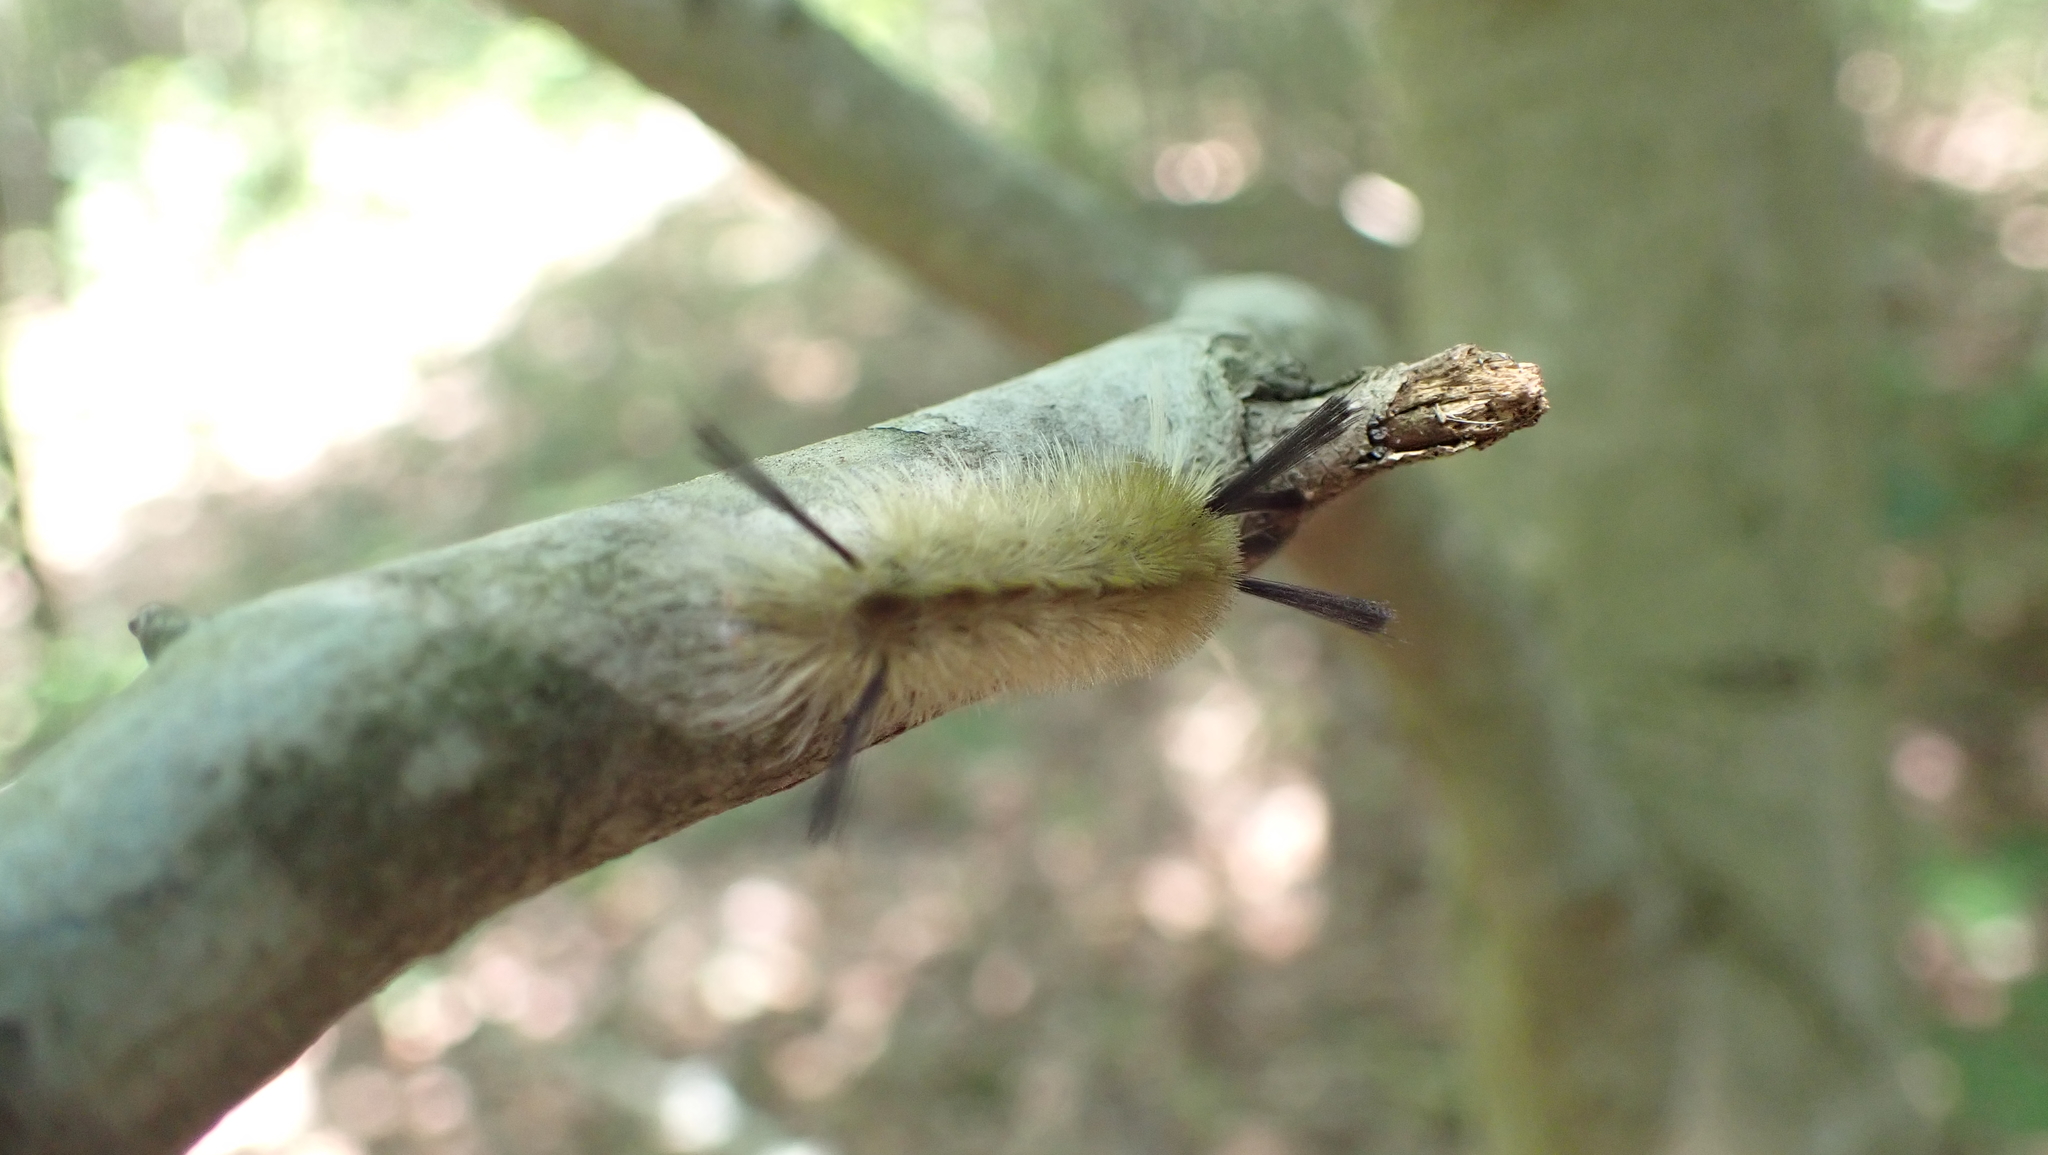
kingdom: Animalia
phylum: Arthropoda
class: Insecta
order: Lepidoptera
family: Erebidae
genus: Halysidota
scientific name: Halysidota tessellaris
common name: Banded tussock moth
